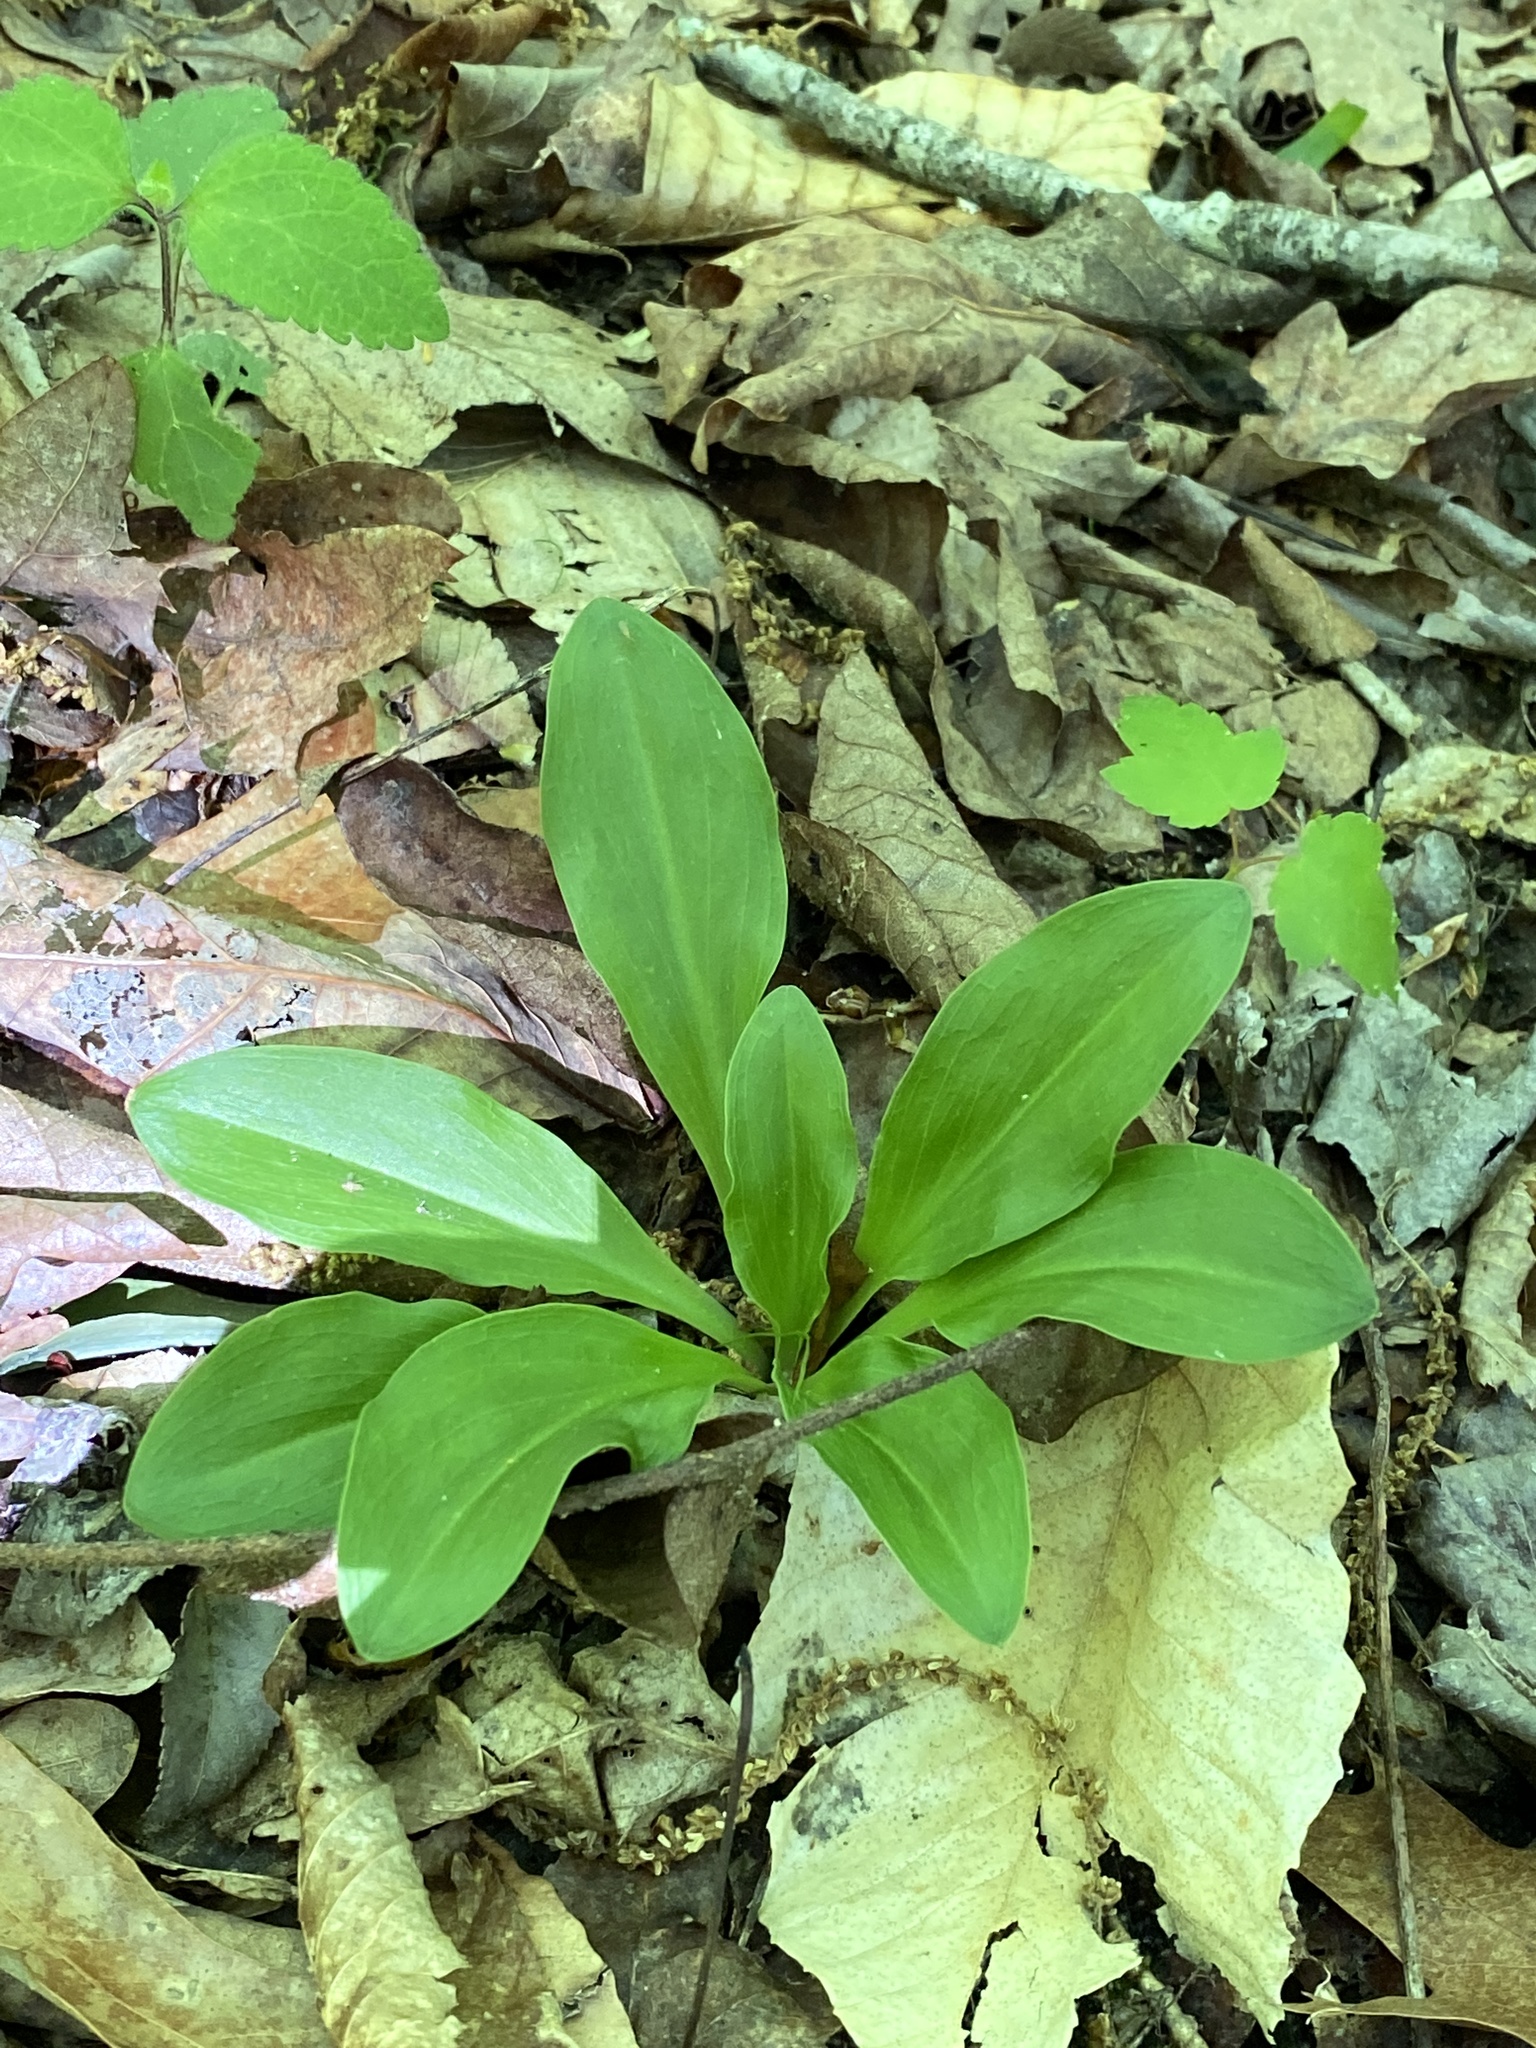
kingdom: Plantae
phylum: Tracheophyta
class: Liliopsida
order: Liliales
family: Melanthiaceae
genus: Chamaelirium
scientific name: Chamaelirium luteum
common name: Fairy-wand
